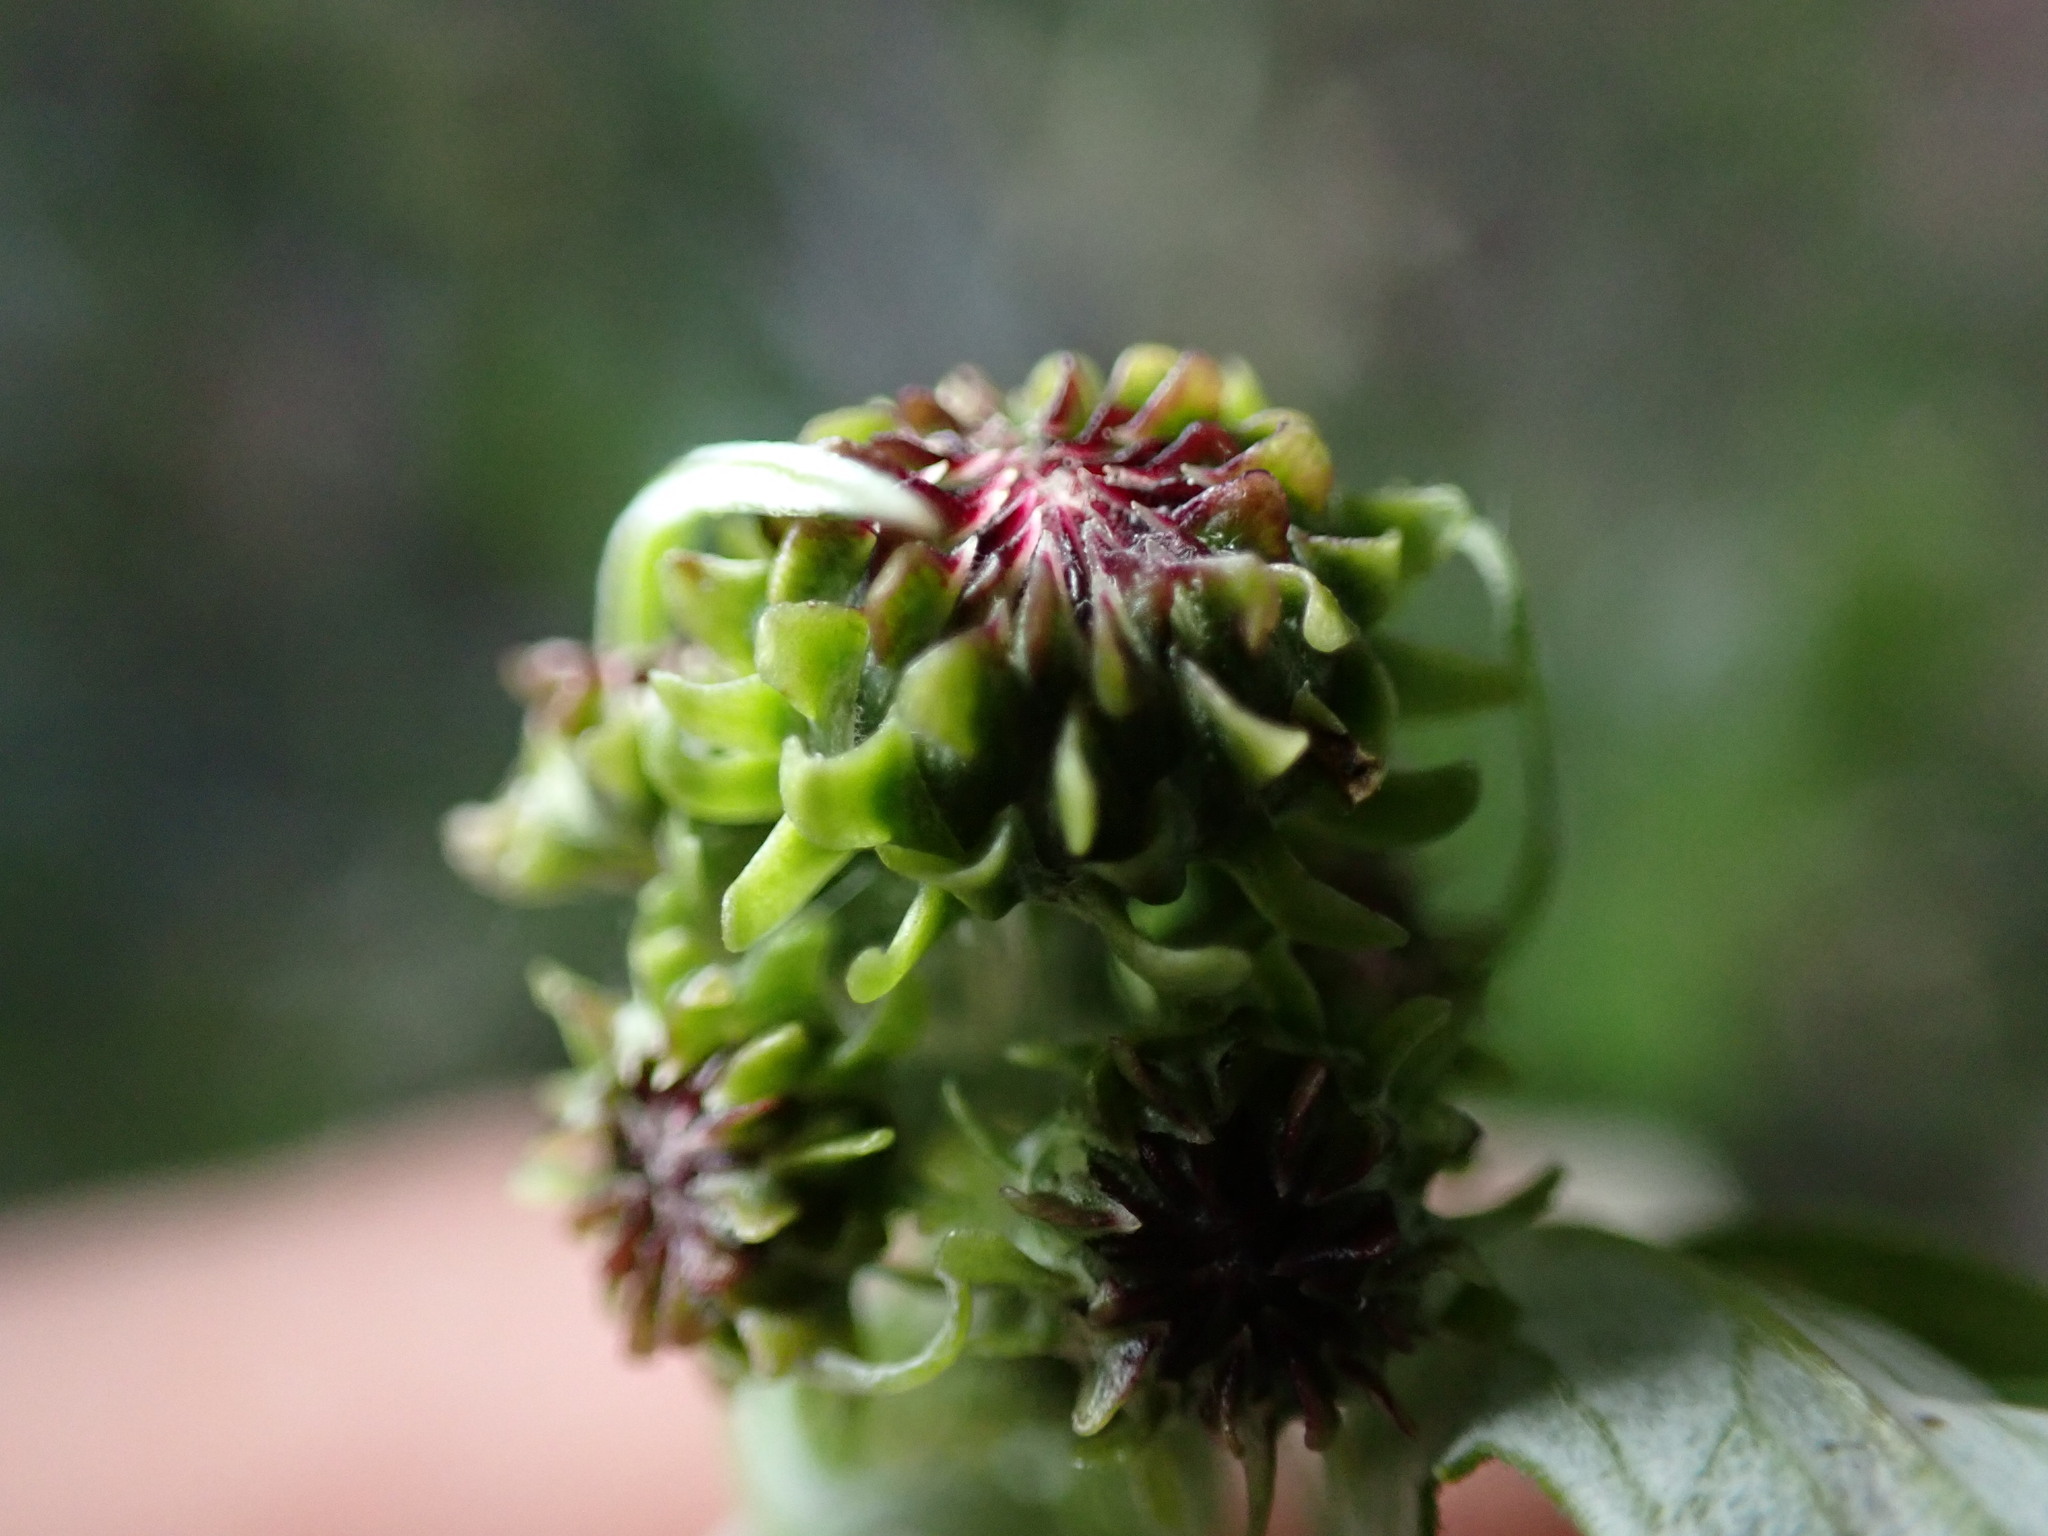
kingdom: Plantae
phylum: Tracheophyta
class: Magnoliopsida
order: Asterales
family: Asteraceae
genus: Saussurea
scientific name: Saussurea lyrata
